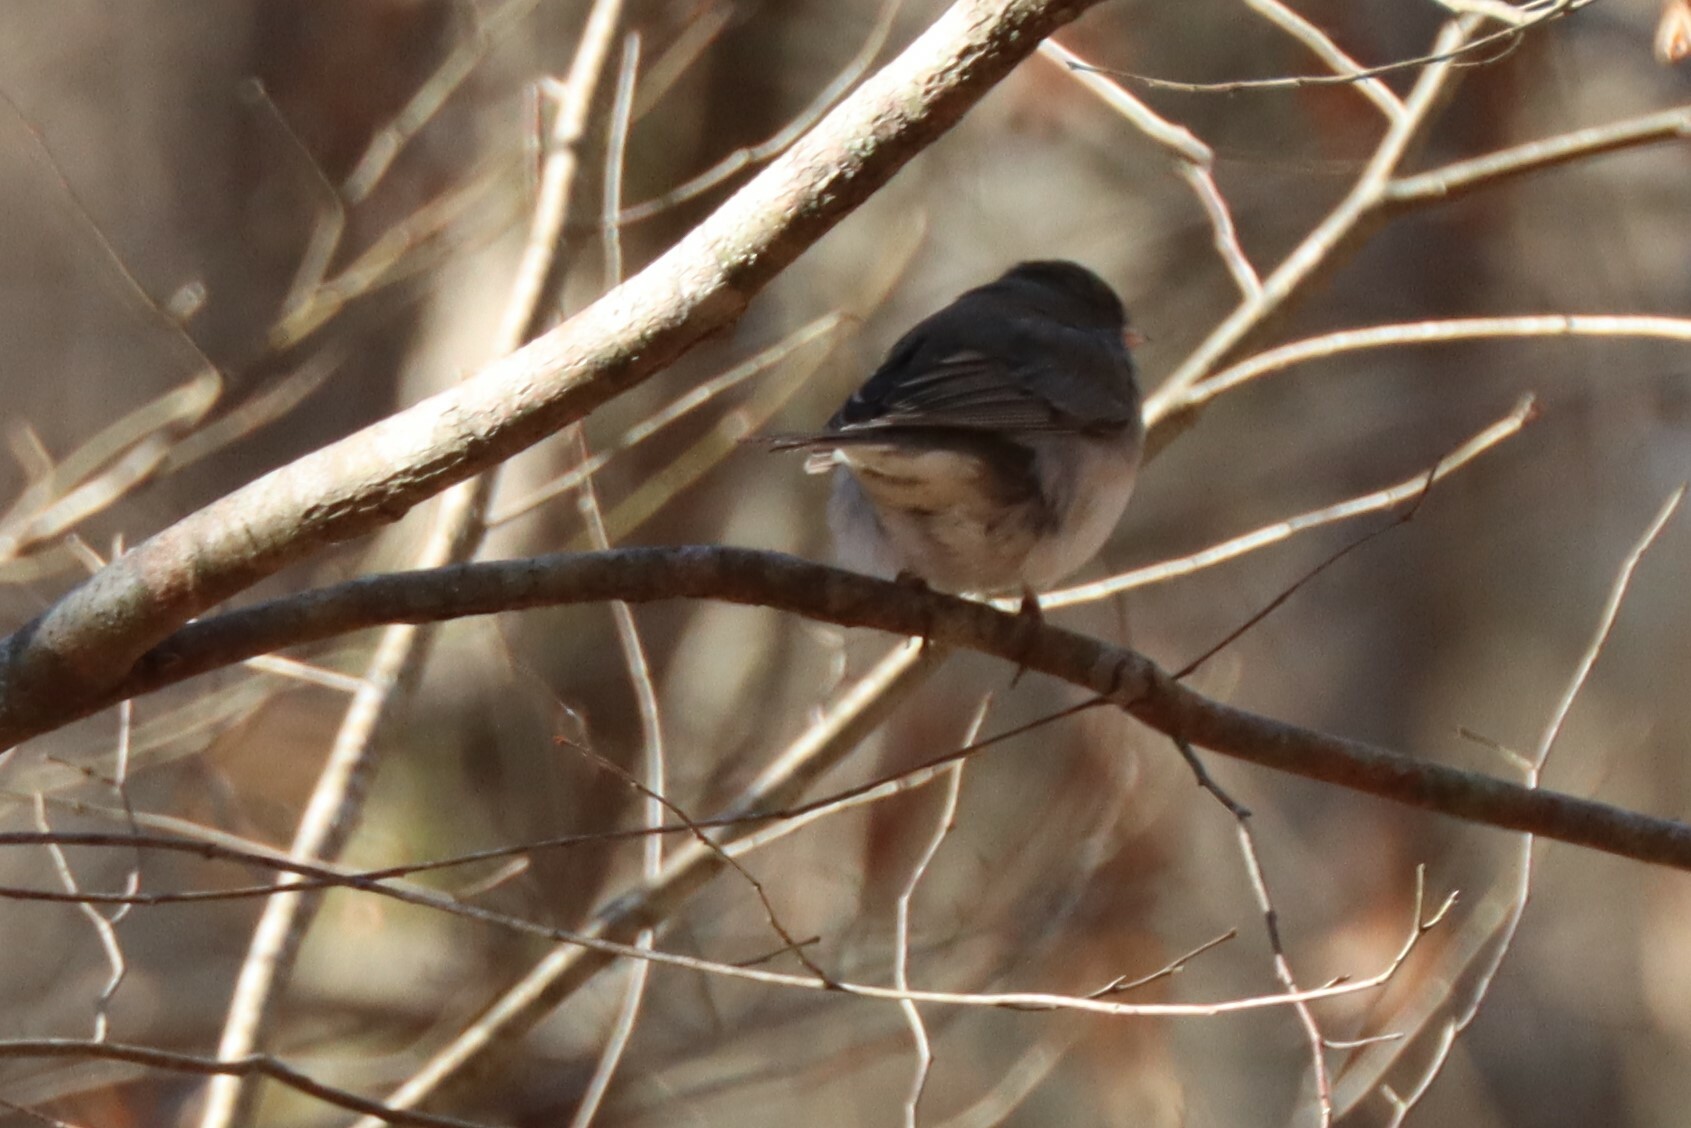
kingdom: Animalia
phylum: Chordata
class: Aves
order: Passeriformes
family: Passerellidae
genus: Junco
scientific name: Junco hyemalis
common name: Dark-eyed junco
